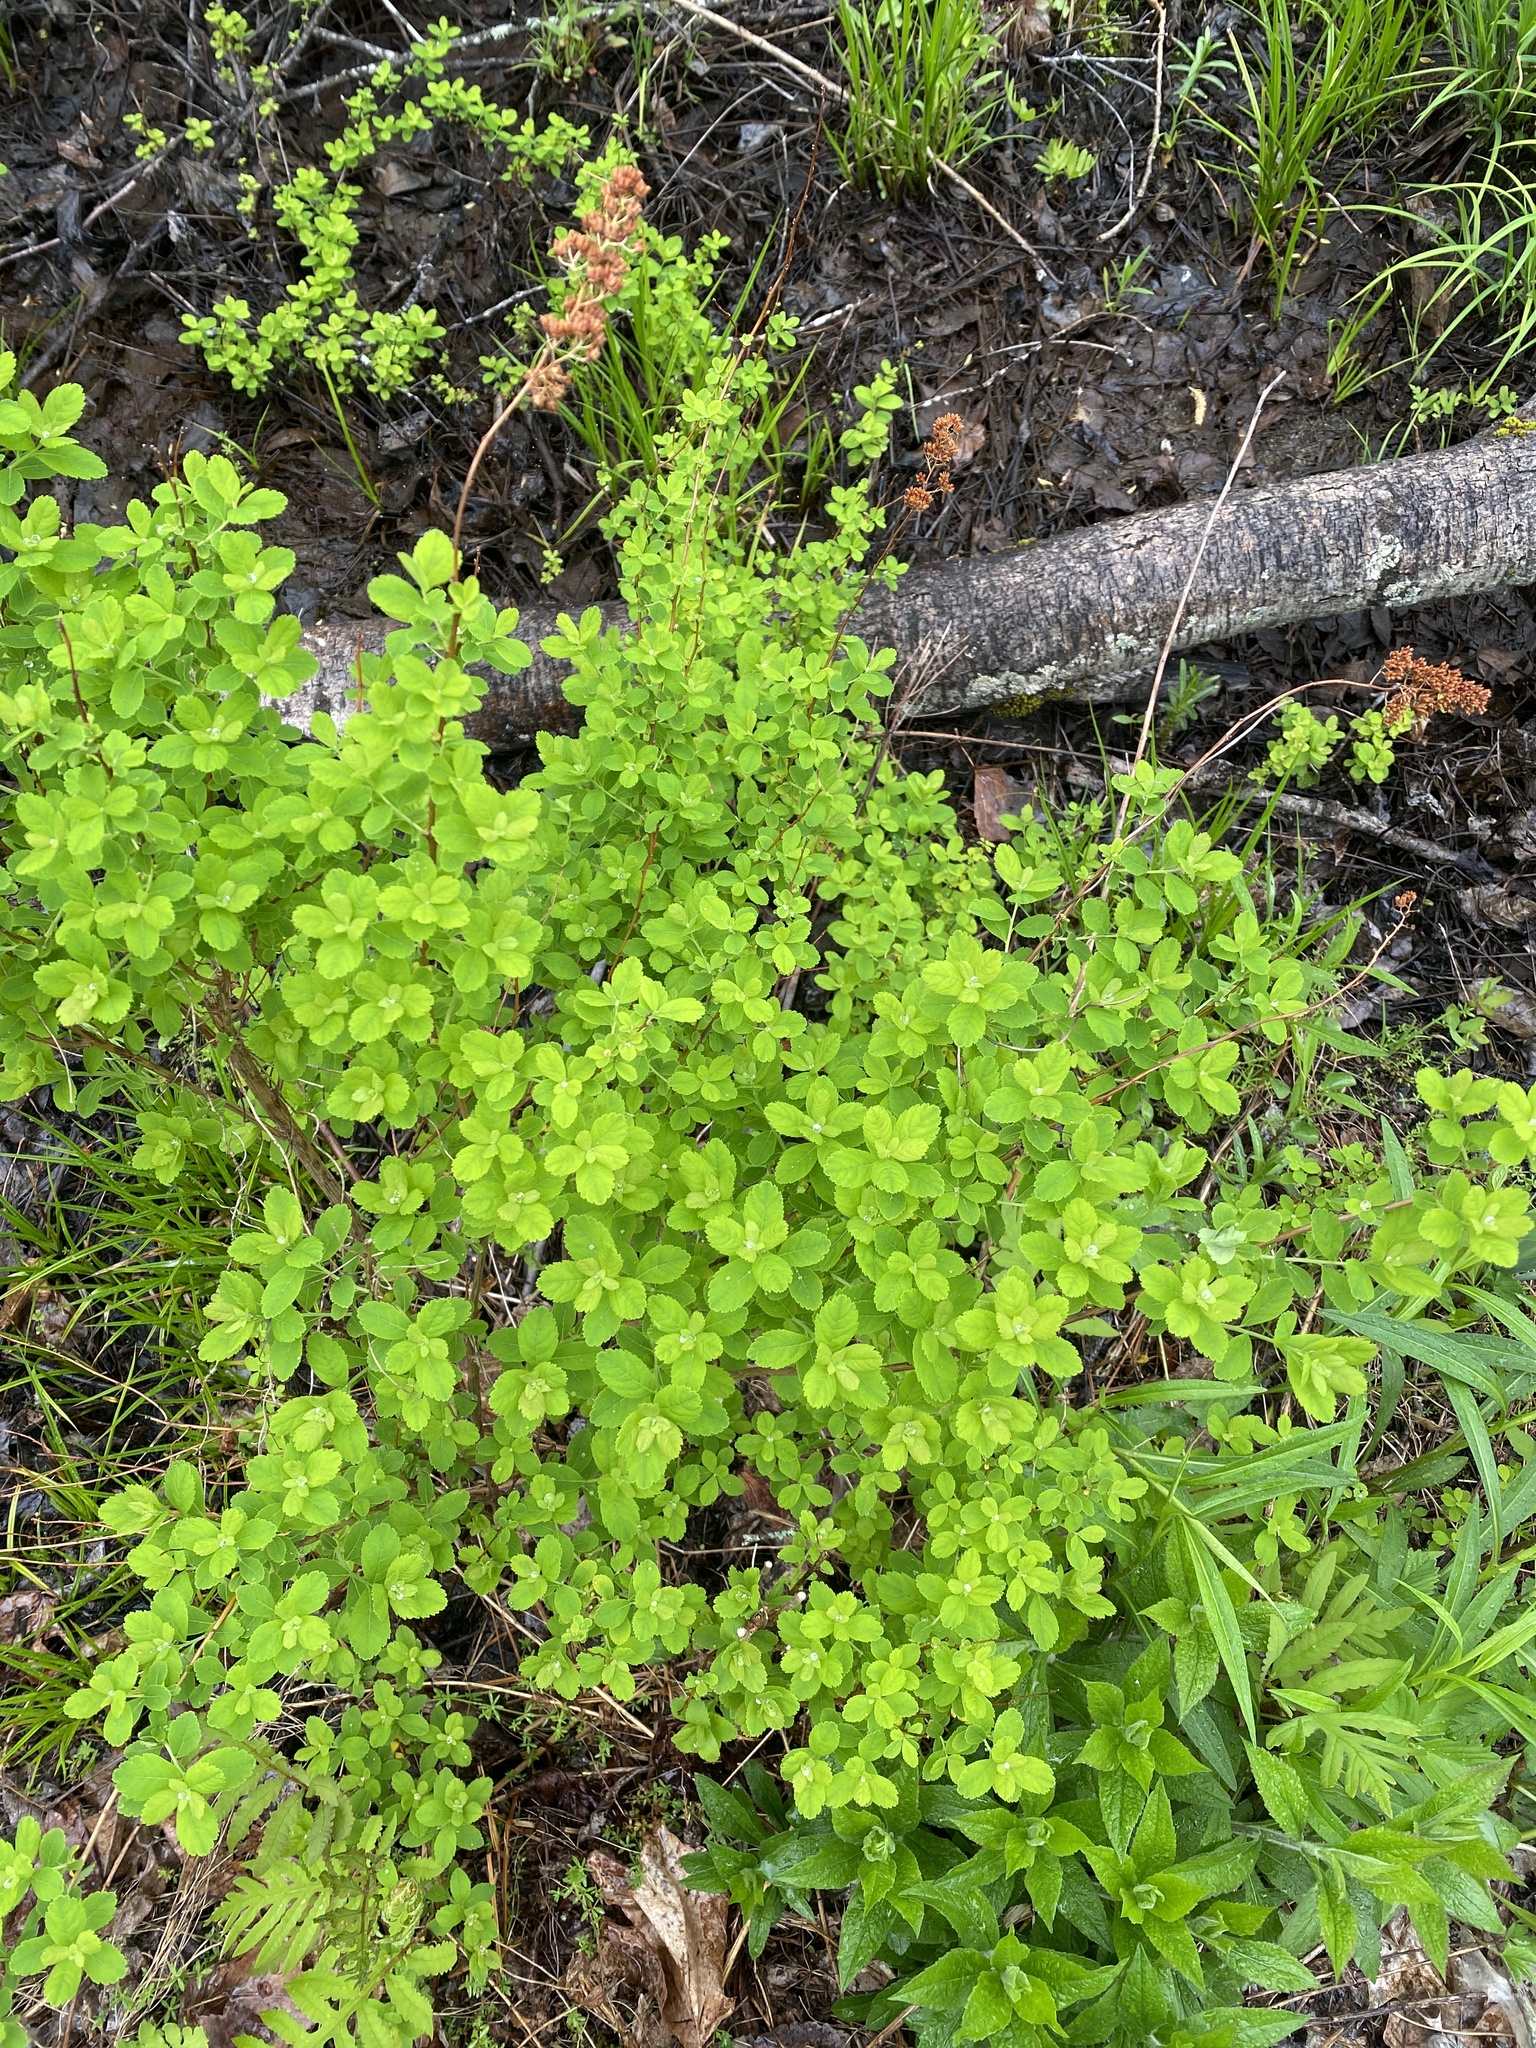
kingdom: Plantae
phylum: Tracheophyta
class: Magnoliopsida
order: Rosales
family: Rosaceae
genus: Spiraea
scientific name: Spiraea alba
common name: Pale bridewort
